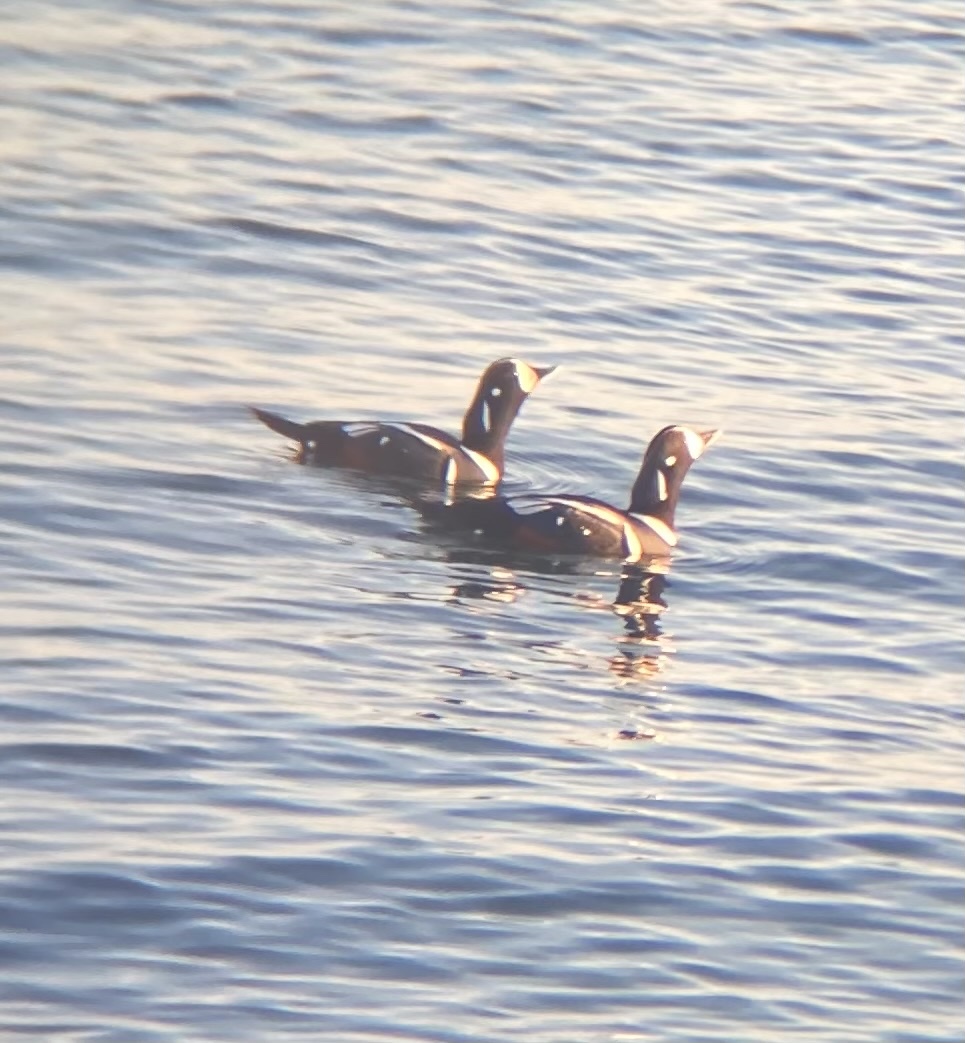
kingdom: Animalia
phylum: Chordata
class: Aves
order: Anseriformes
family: Anatidae
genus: Histrionicus
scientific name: Histrionicus histrionicus
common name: Harlequin duck
